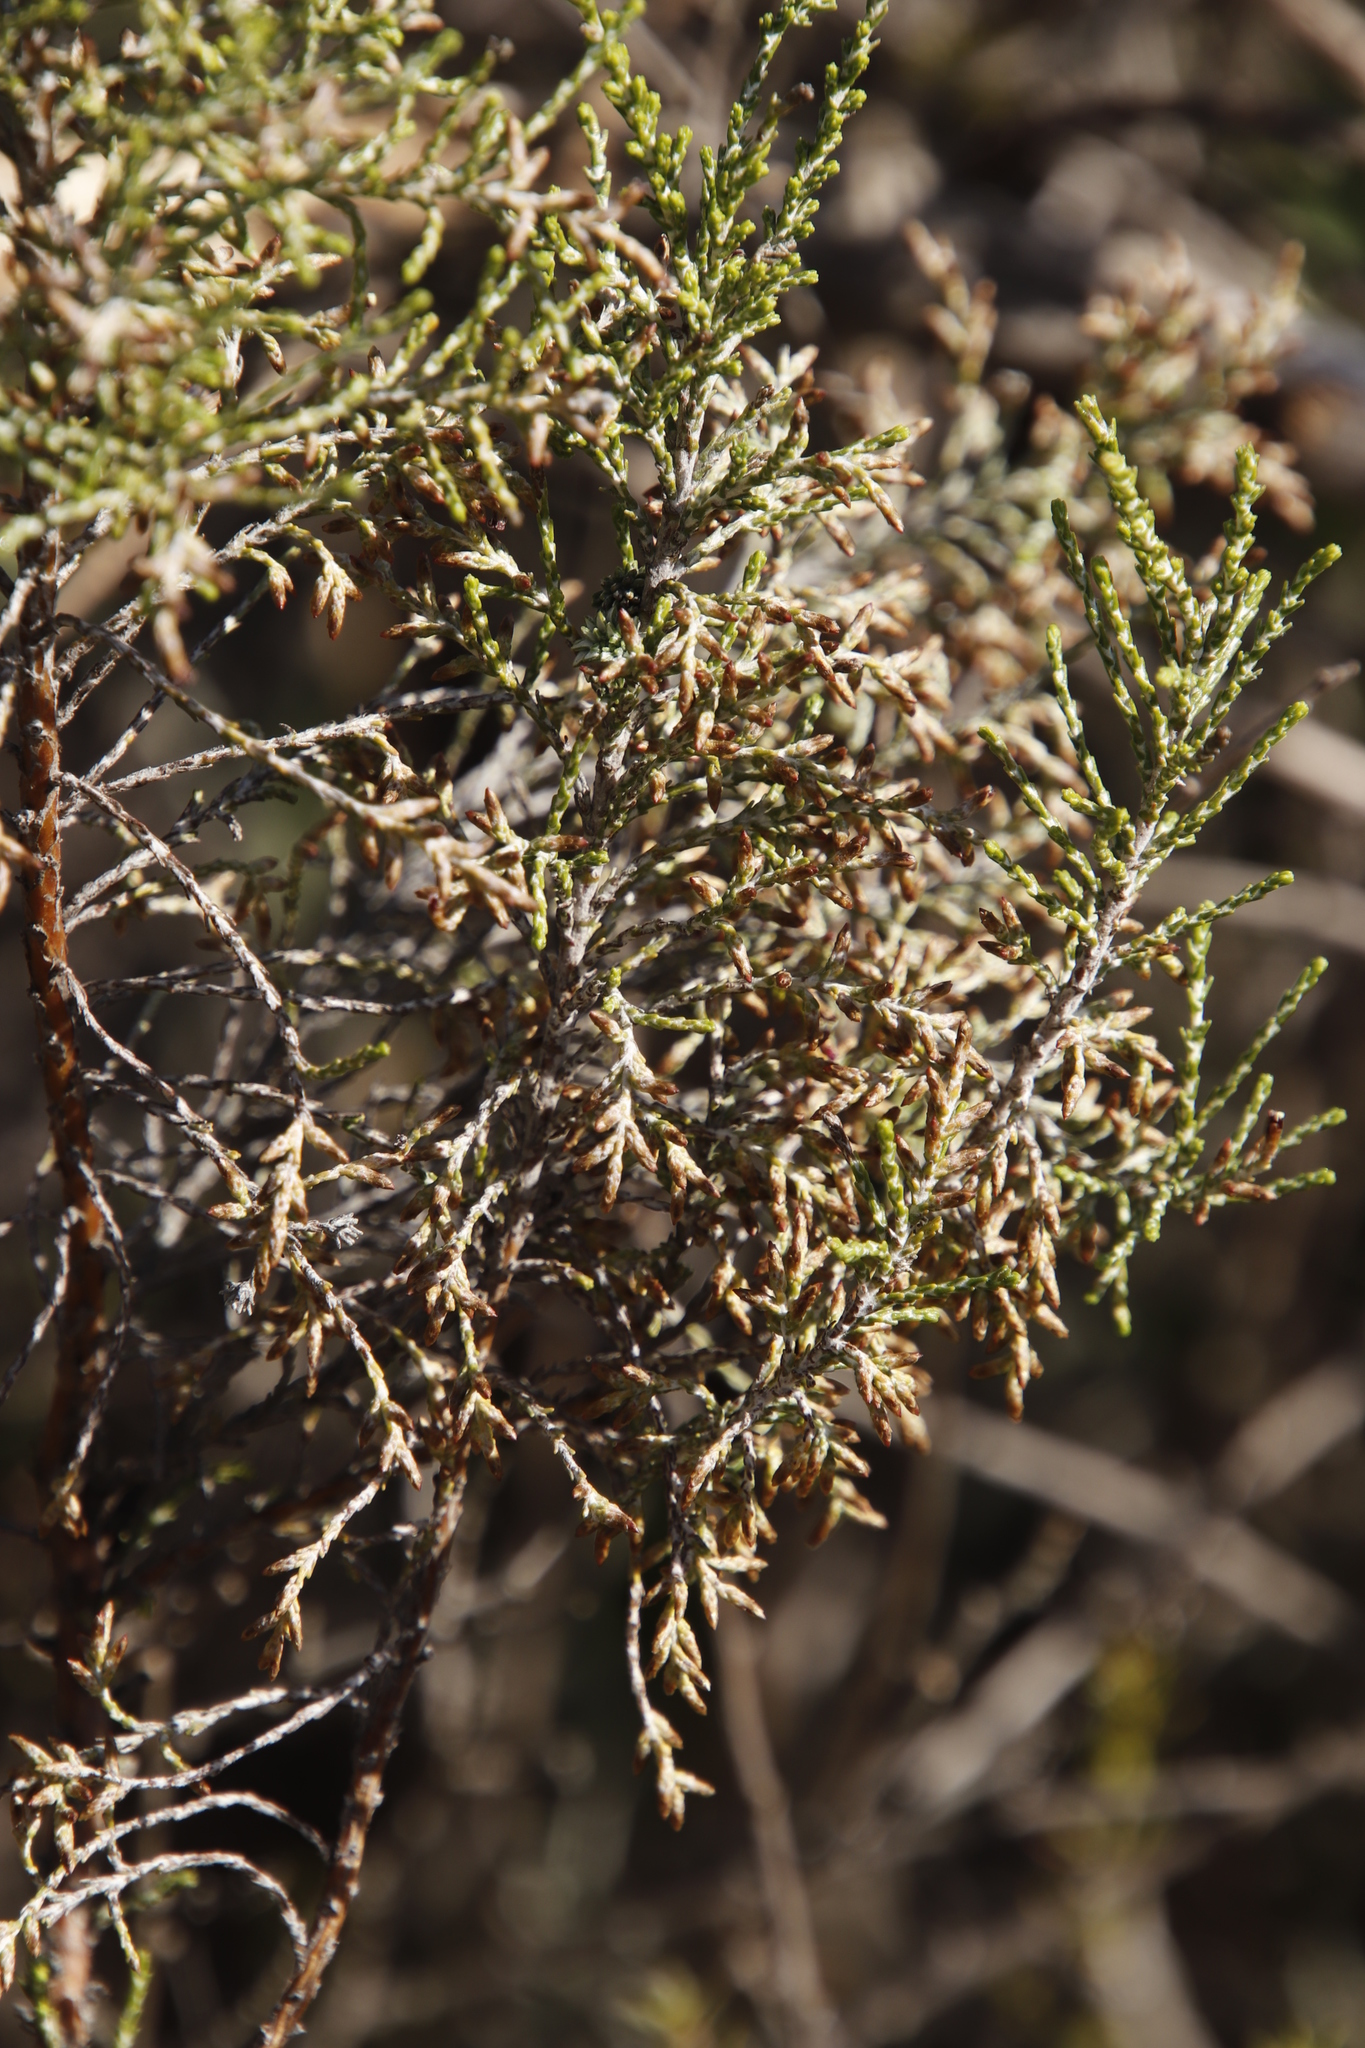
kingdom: Plantae
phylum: Tracheophyta
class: Magnoliopsida
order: Asterales
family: Asteraceae
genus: Dicerothamnus
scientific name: Dicerothamnus rhinocerotis
